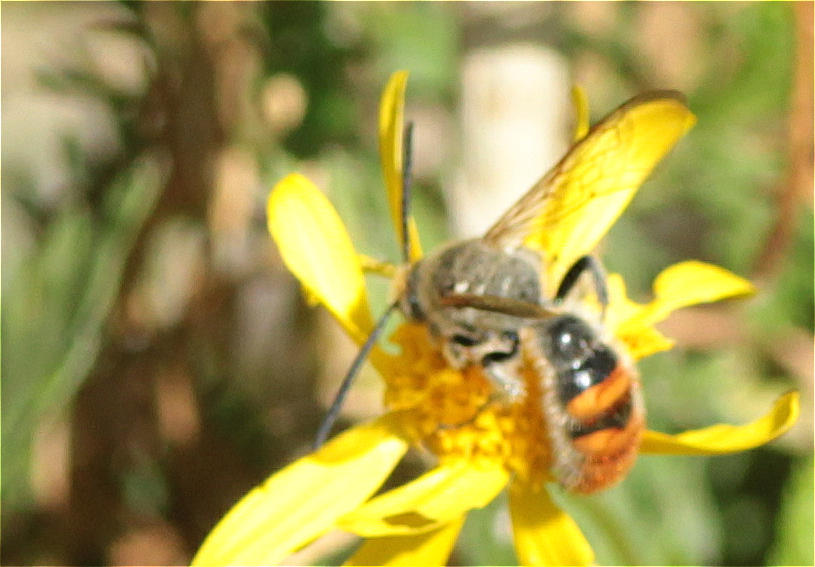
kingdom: Animalia
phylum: Arthropoda
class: Insecta
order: Hymenoptera
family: Scoliidae
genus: Campsomeriella
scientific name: Campsomeriella thoracica
